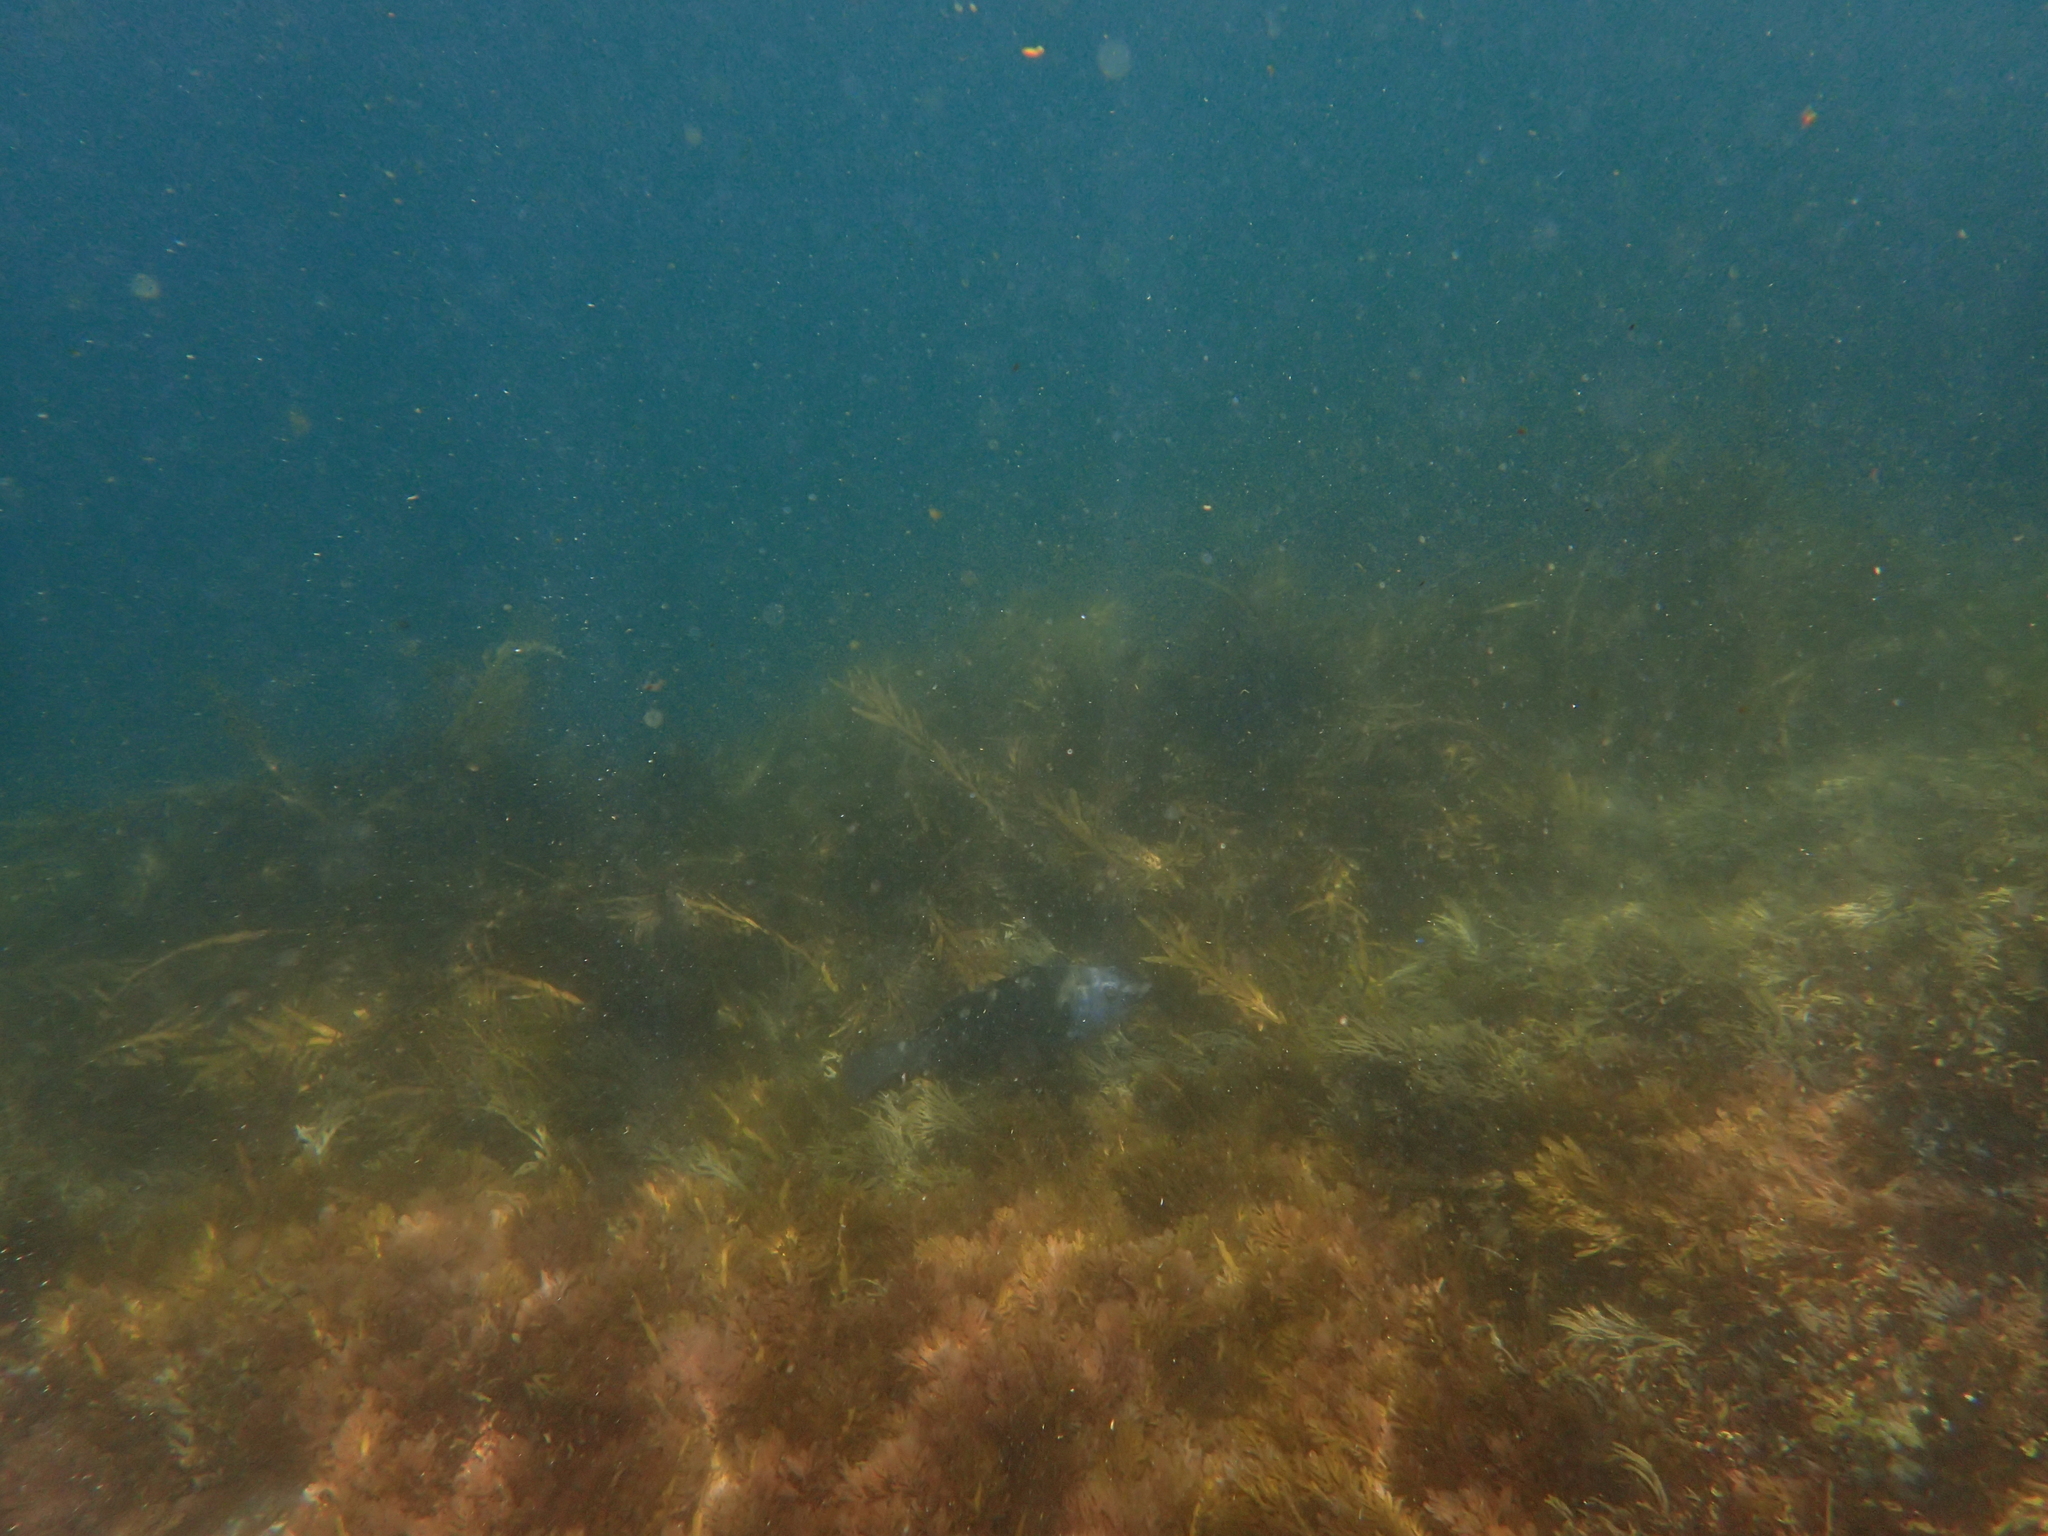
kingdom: Animalia
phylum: Chordata
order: Perciformes
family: Labridae
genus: Notolabrus
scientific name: Notolabrus fucicola
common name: Banded parrotfish
